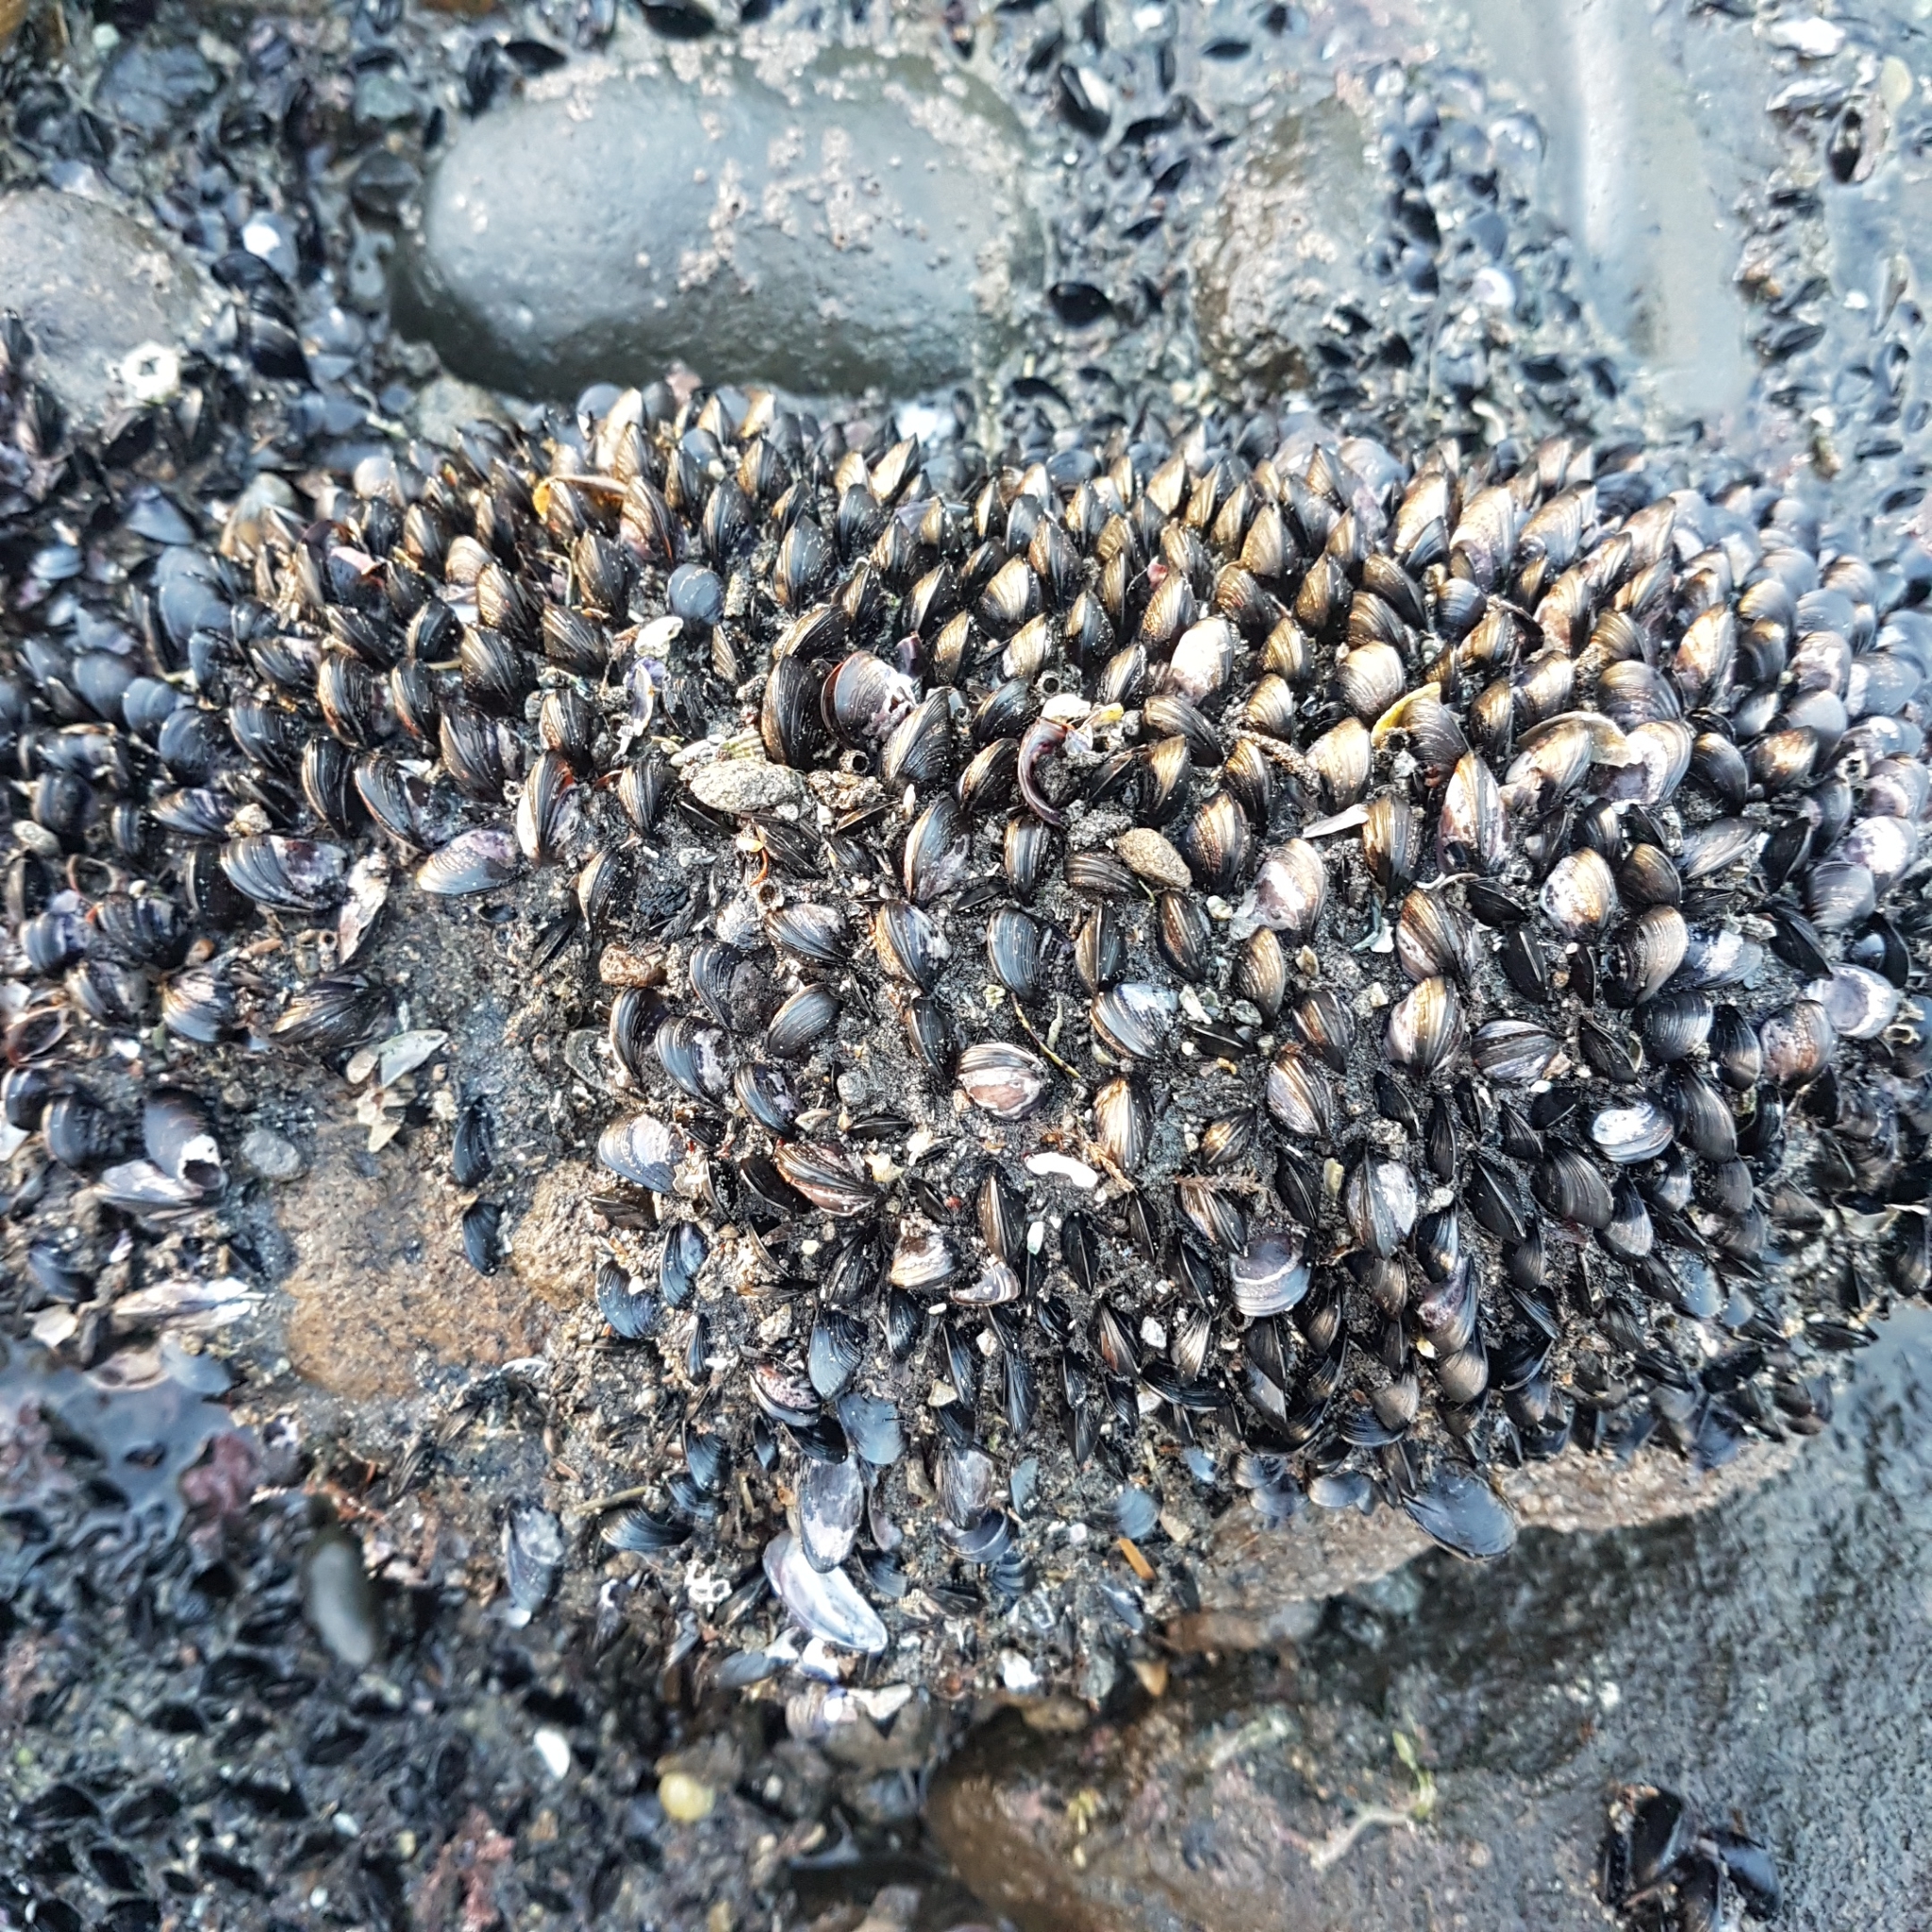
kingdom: Animalia
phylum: Mollusca
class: Bivalvia
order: Mytilida
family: Mytilidae
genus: Xenostrobus
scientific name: Xenostrobus neozelanicus
